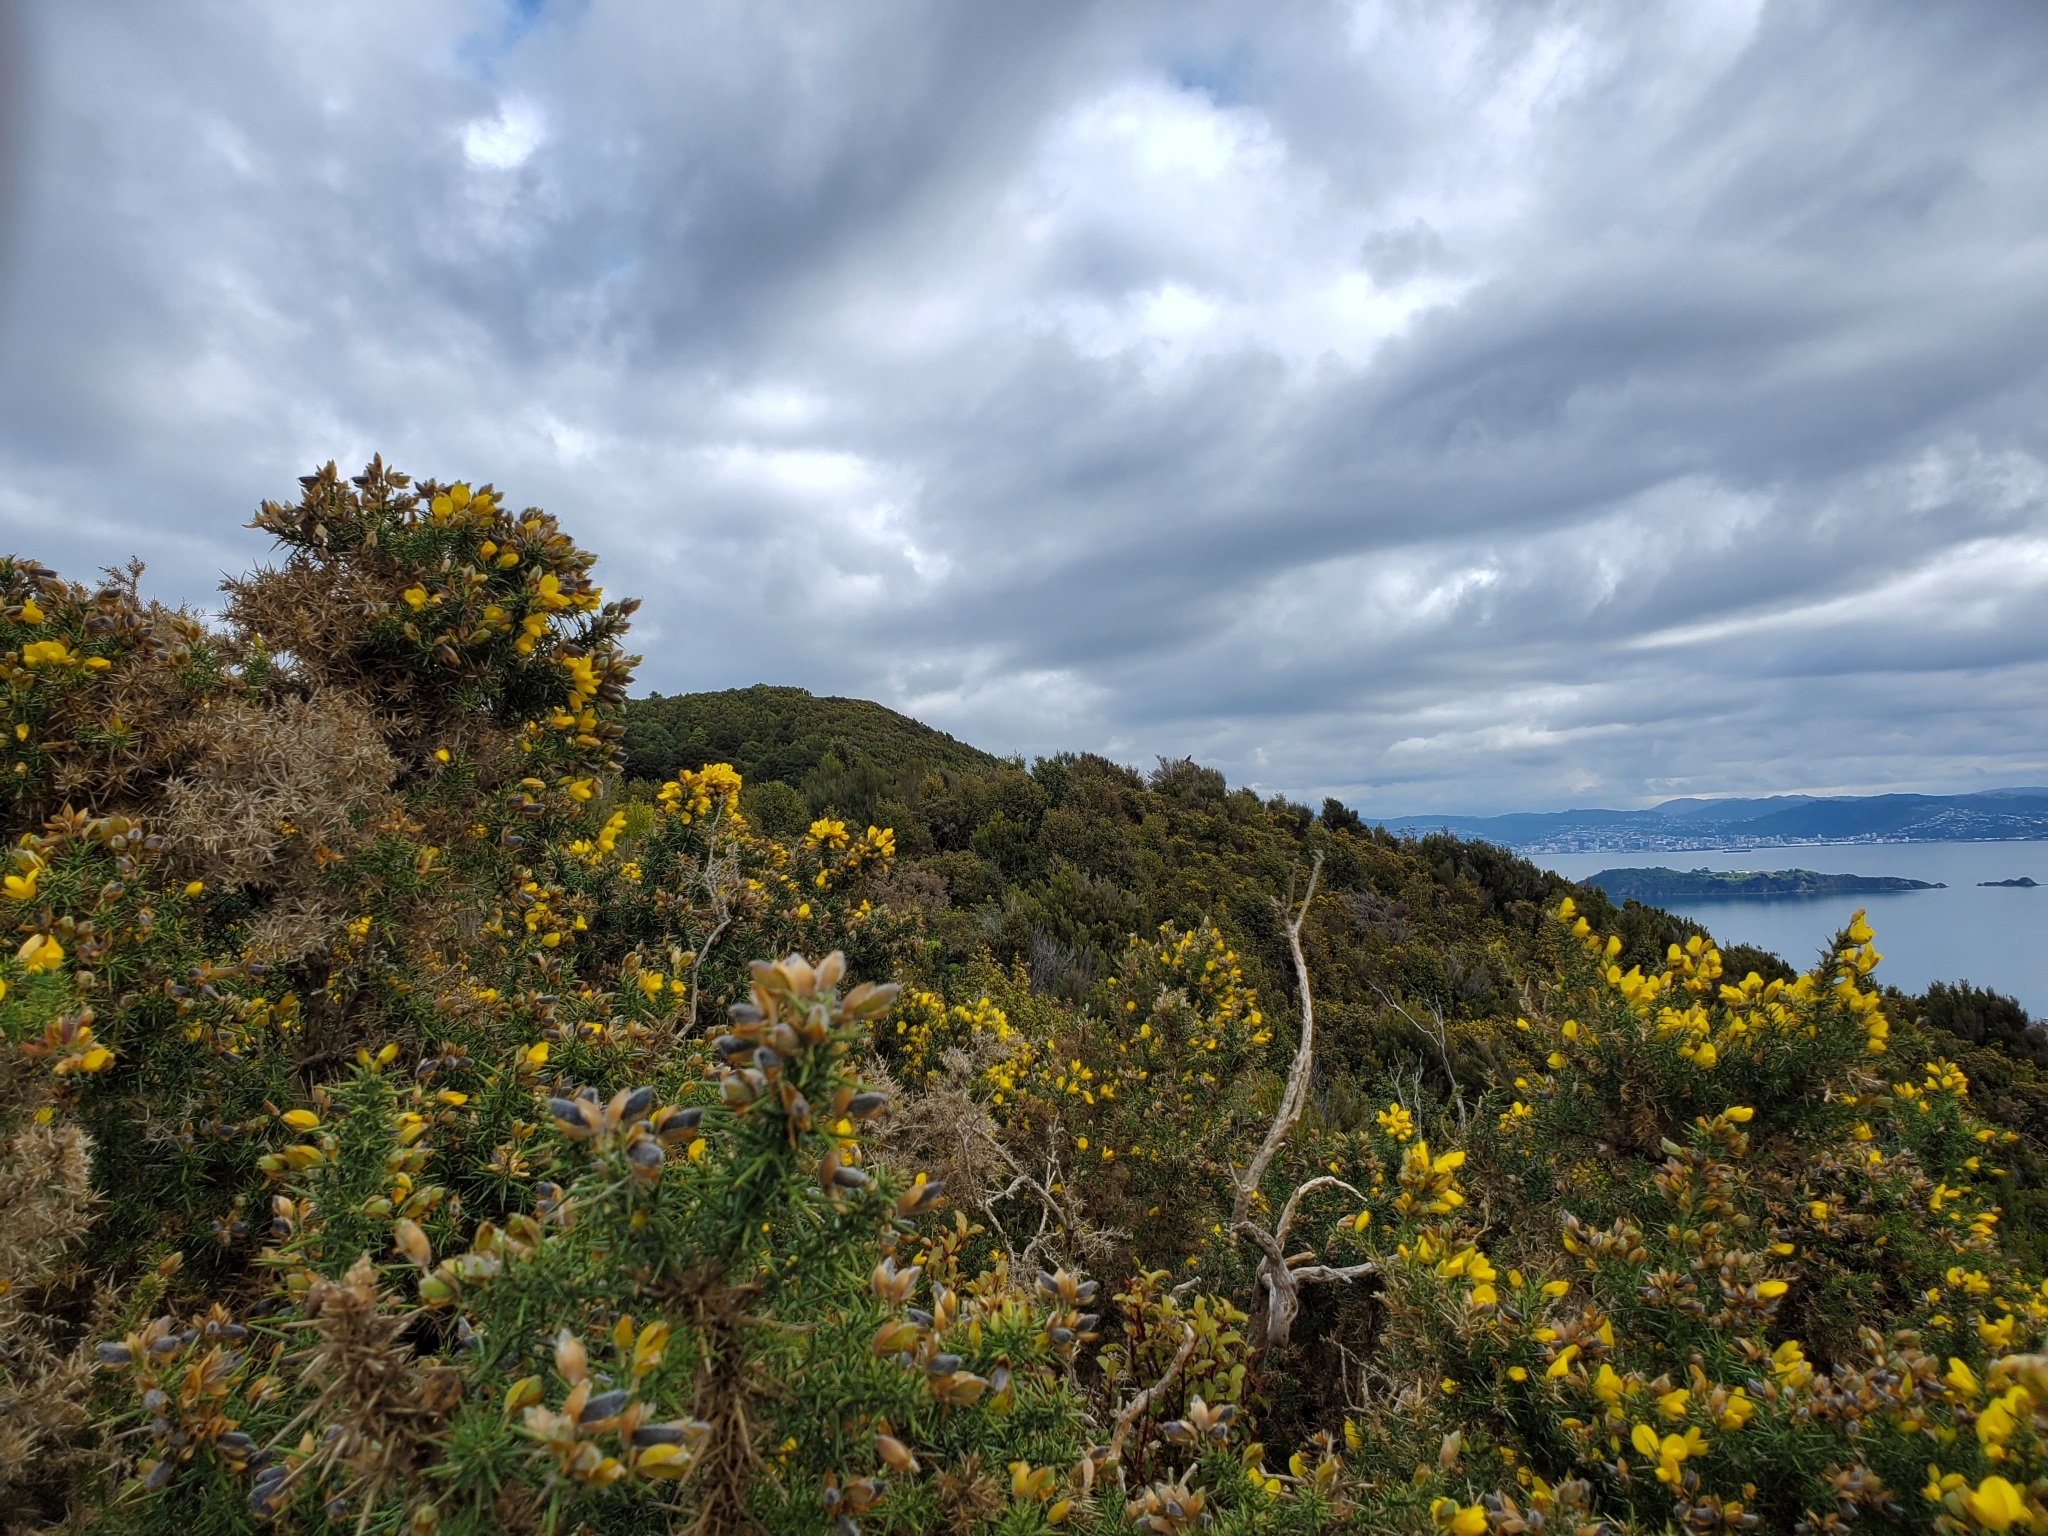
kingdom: Animalia
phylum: Chordata
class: Aves
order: Falconiformes
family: Falconidae
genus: Falco
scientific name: Falco novaeseelandiae
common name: New zealand falcon
